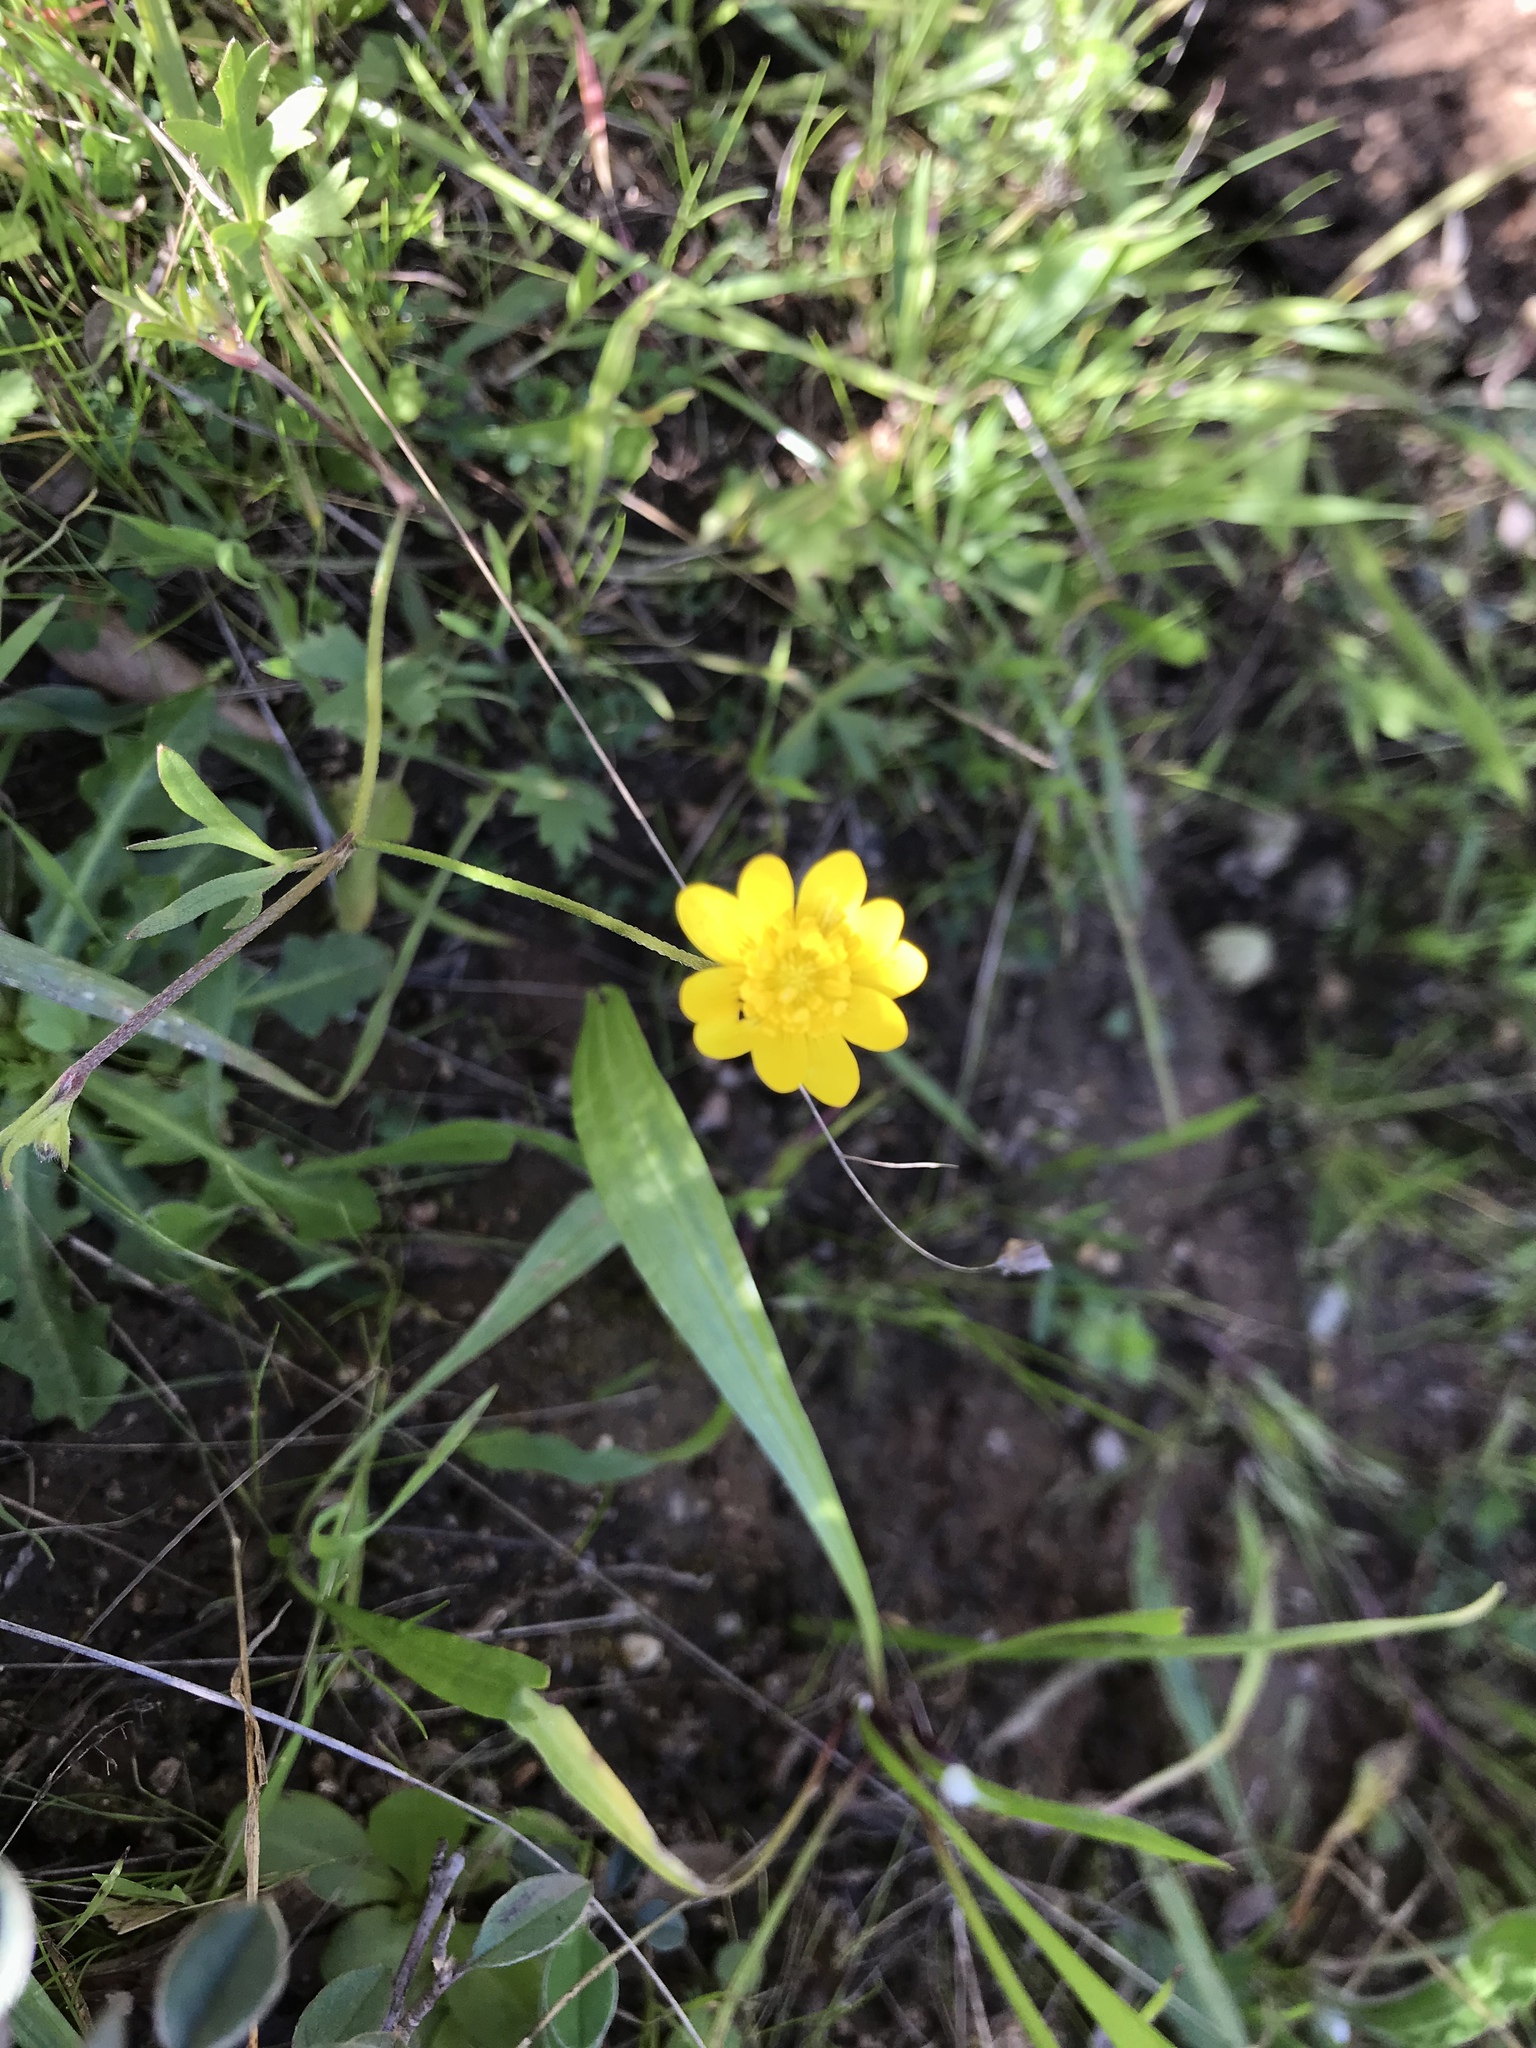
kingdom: Plantae
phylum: Tracheophyta
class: Magnoliopsida
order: Ranunculales
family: Ranunculaceae
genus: Ranunculus
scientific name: Ranunculus californicus
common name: California buttercup
